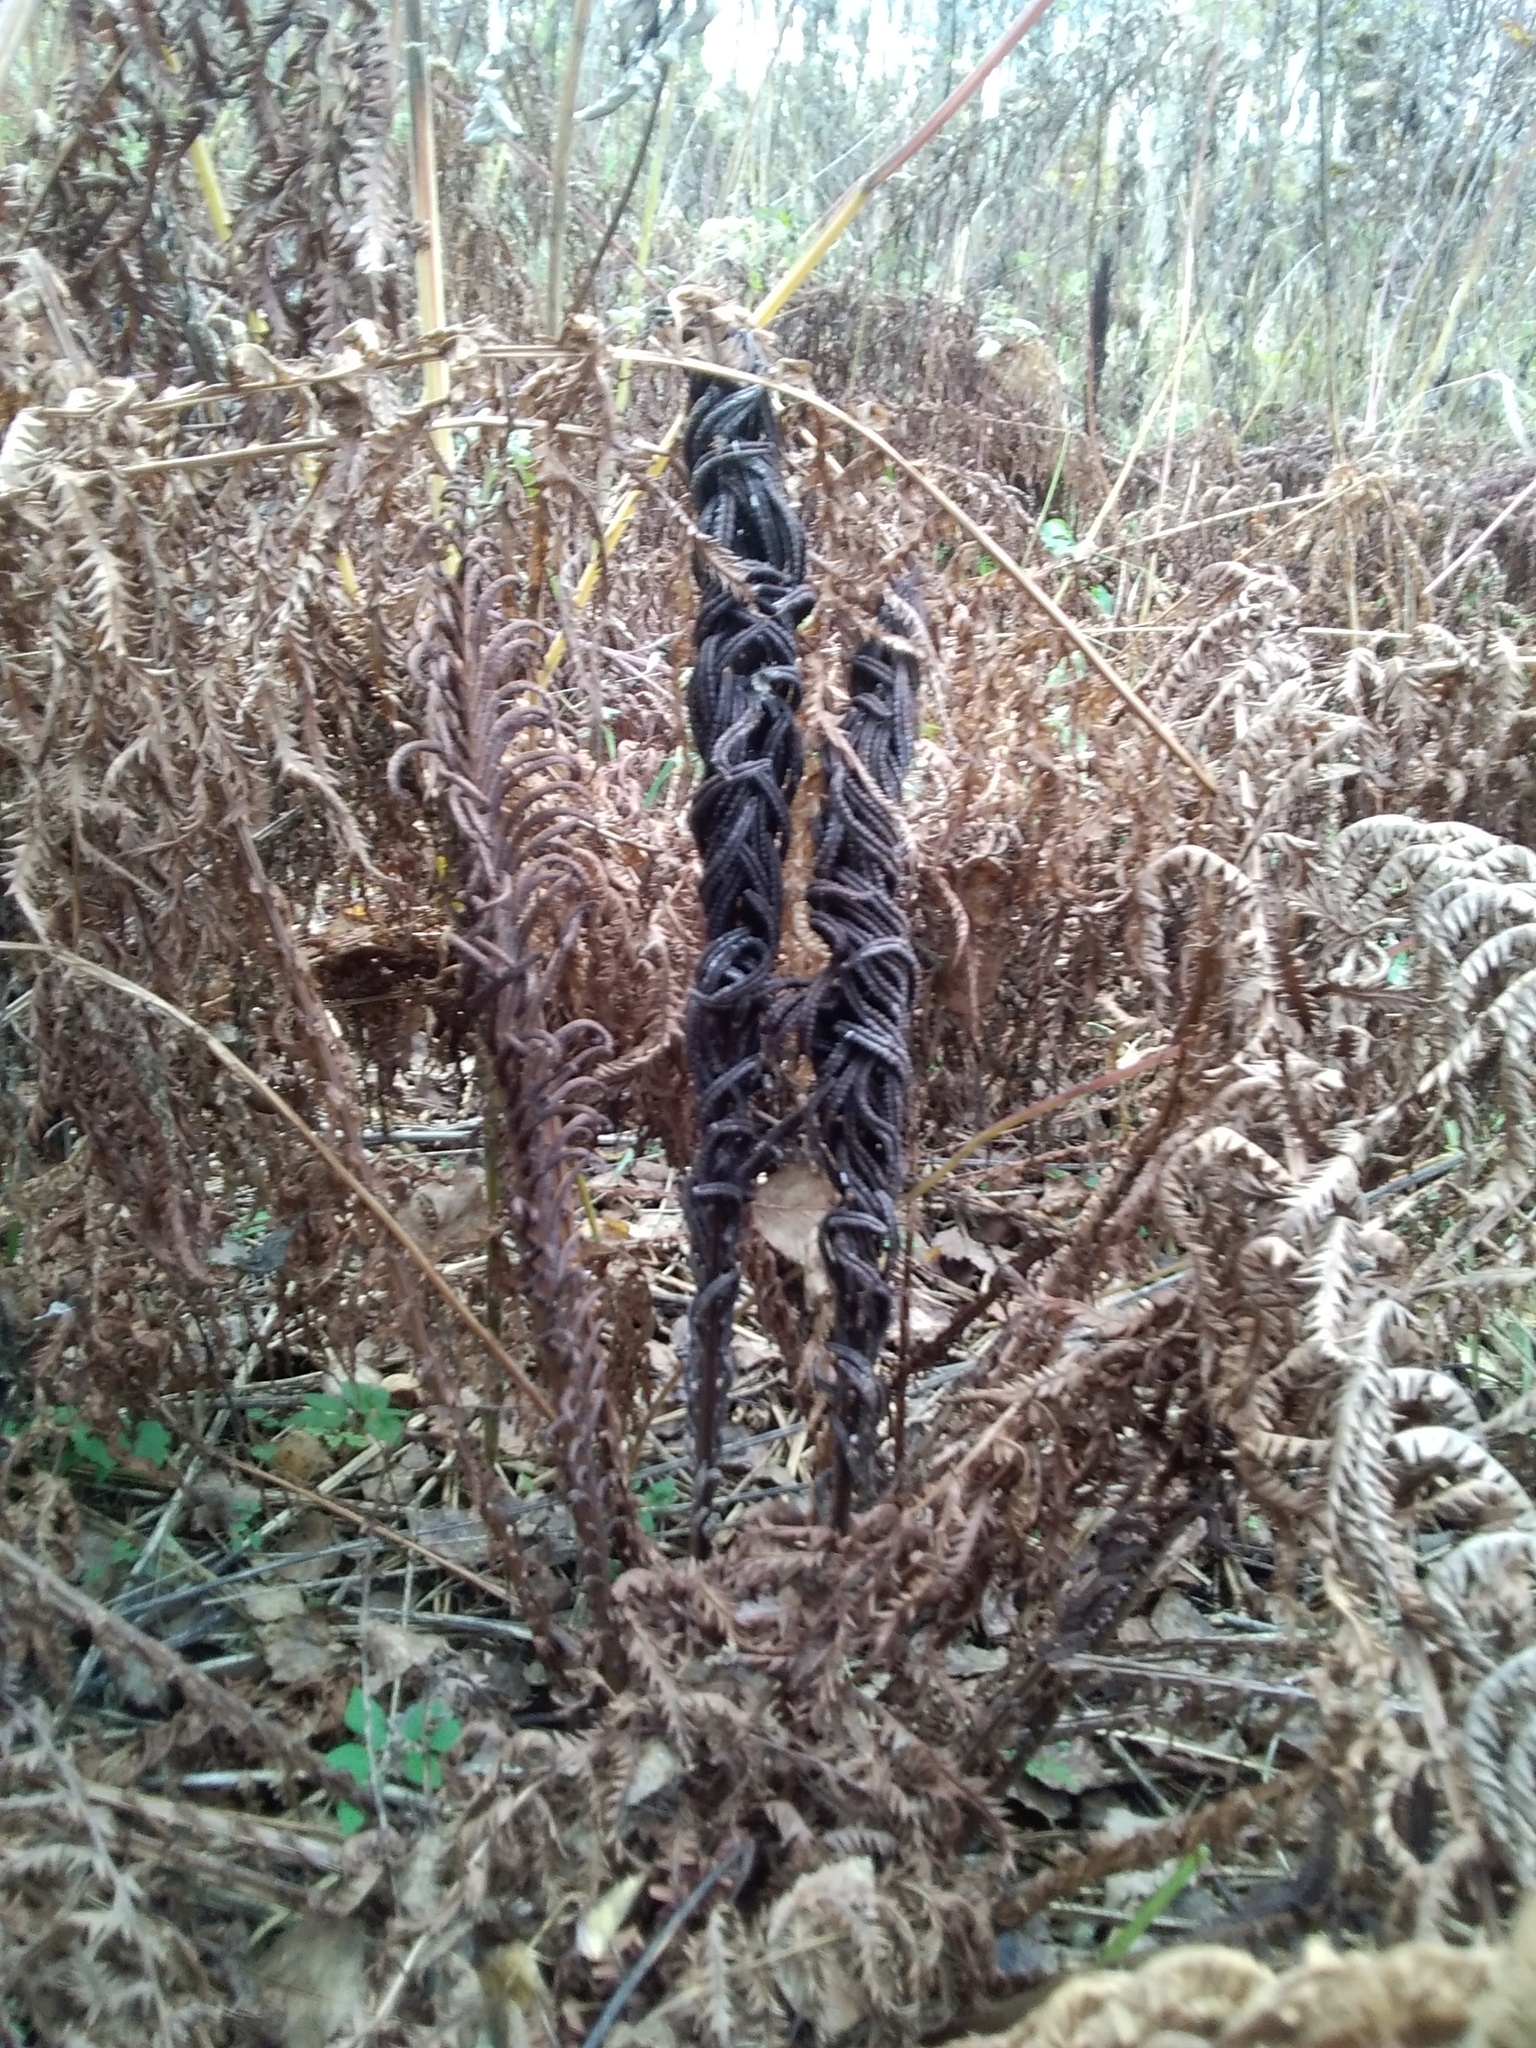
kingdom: Plantae
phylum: Tracheophyta
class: Polypodiopsida
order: Polypodiales
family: Onocleaceae
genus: Matteuccia
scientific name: Matteuccia struthiopteris
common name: Ostrich fern
